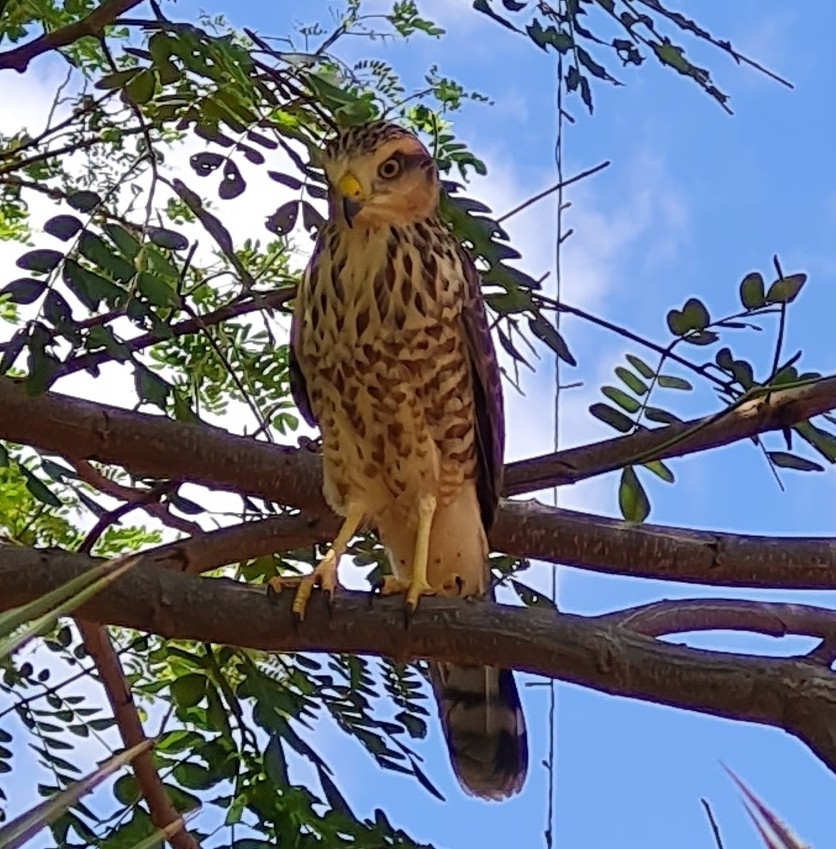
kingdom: Animalia
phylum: Chordata
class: Aves
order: Accipitriformes
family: Accipitridae
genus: Rupornis
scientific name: Rupornis magnirostris
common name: Roadside hawk
